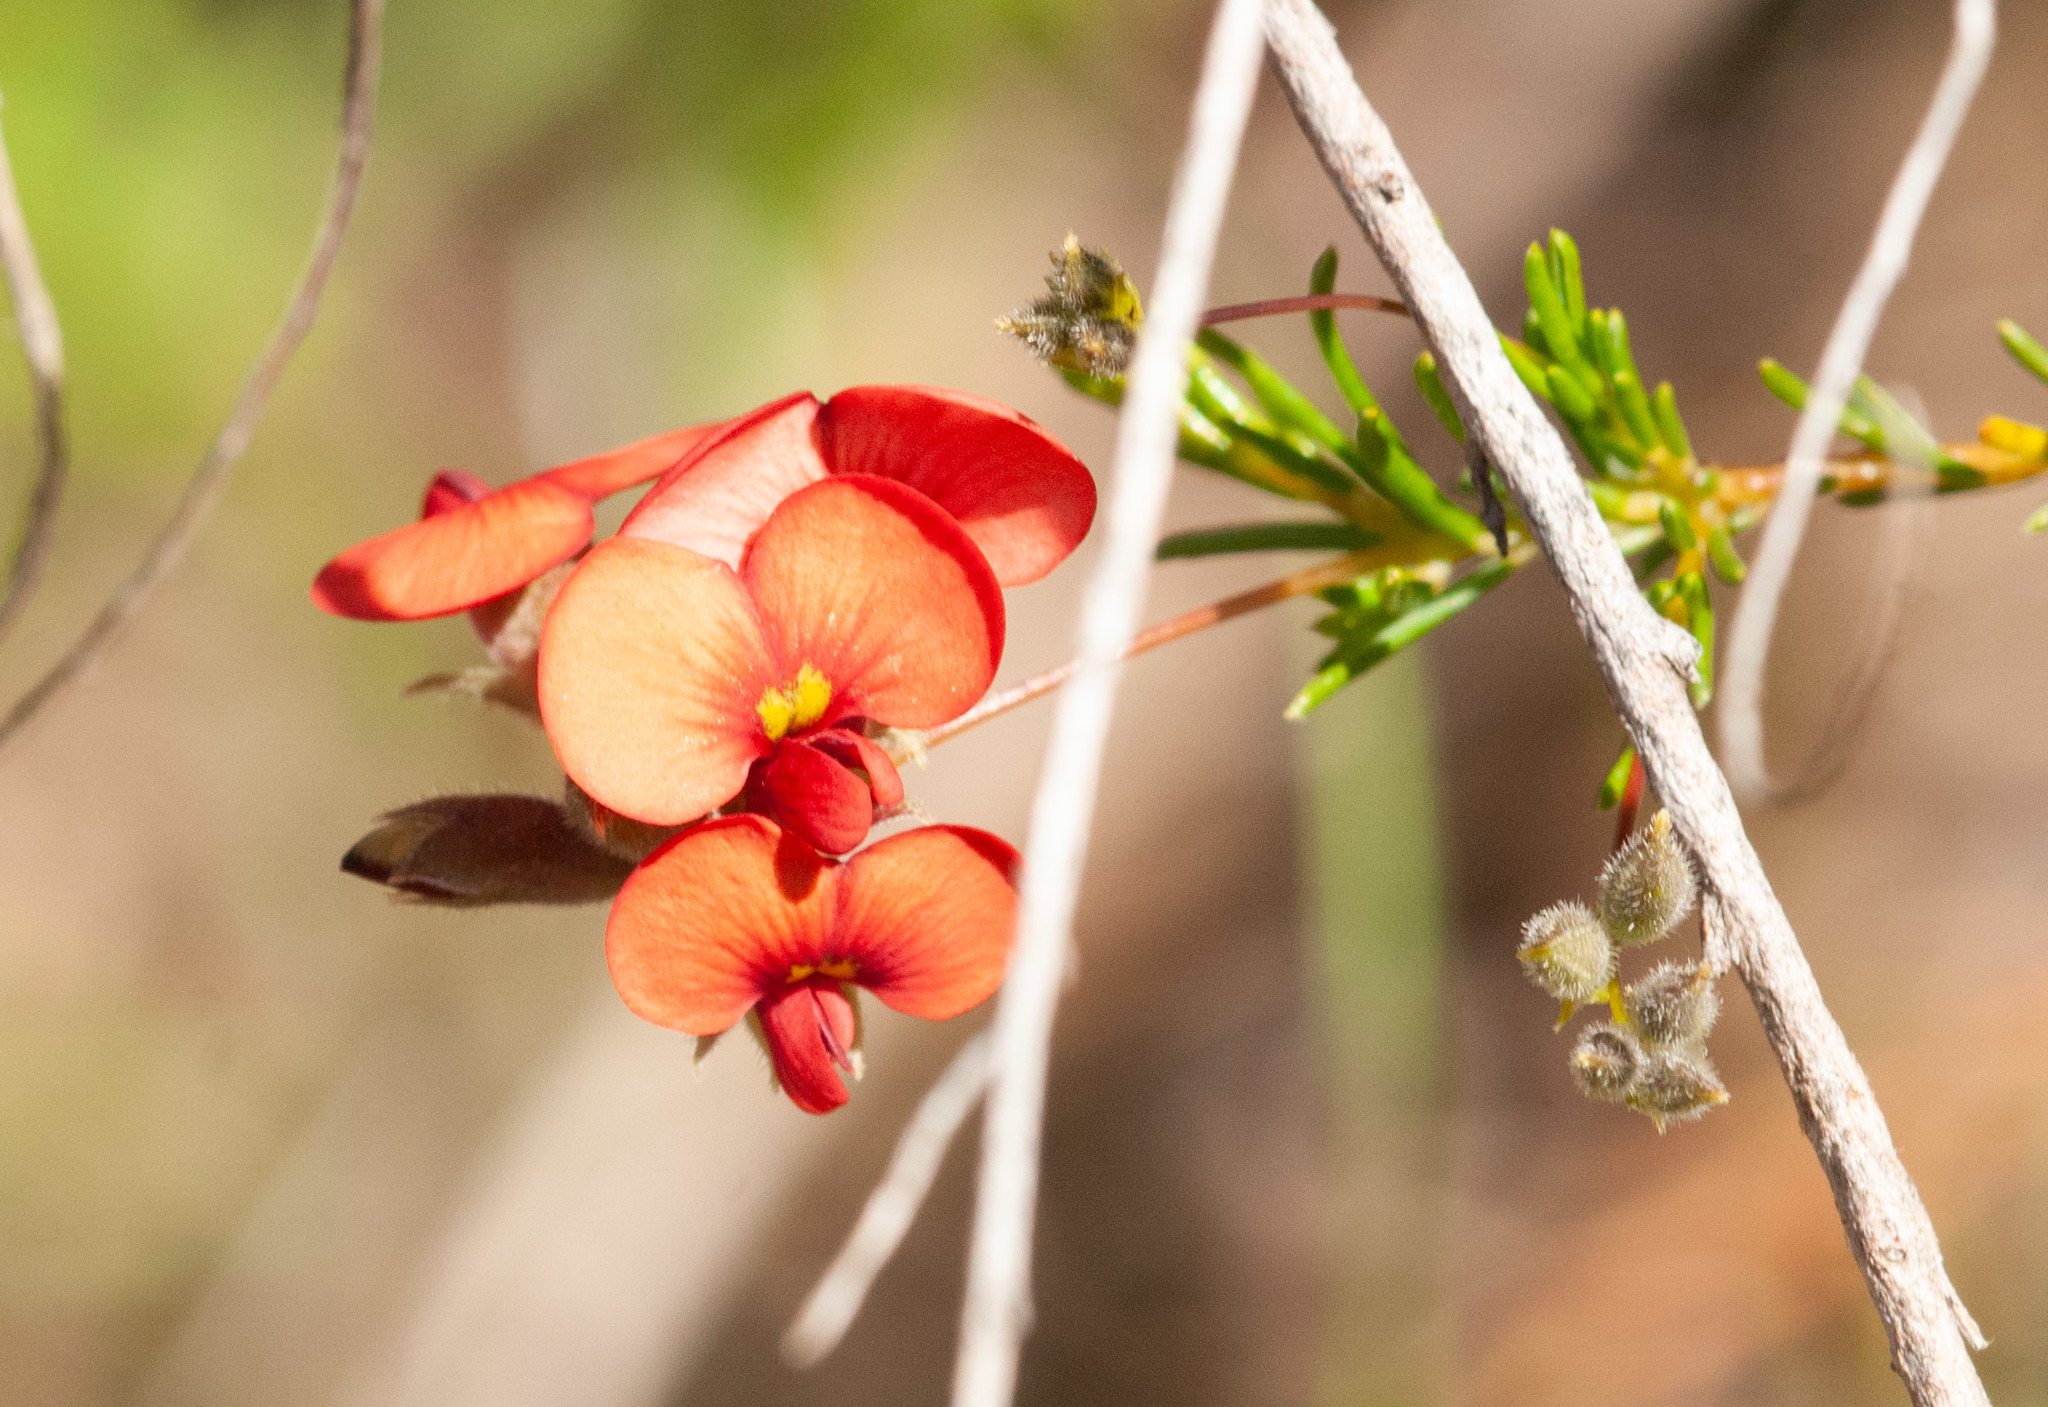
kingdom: Plantae
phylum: Tracheophyta
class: Magnoliopsida
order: Fabales
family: Fabaceae
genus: Dillwynia
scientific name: Dillwynia hispida
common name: Red parrot-pea
